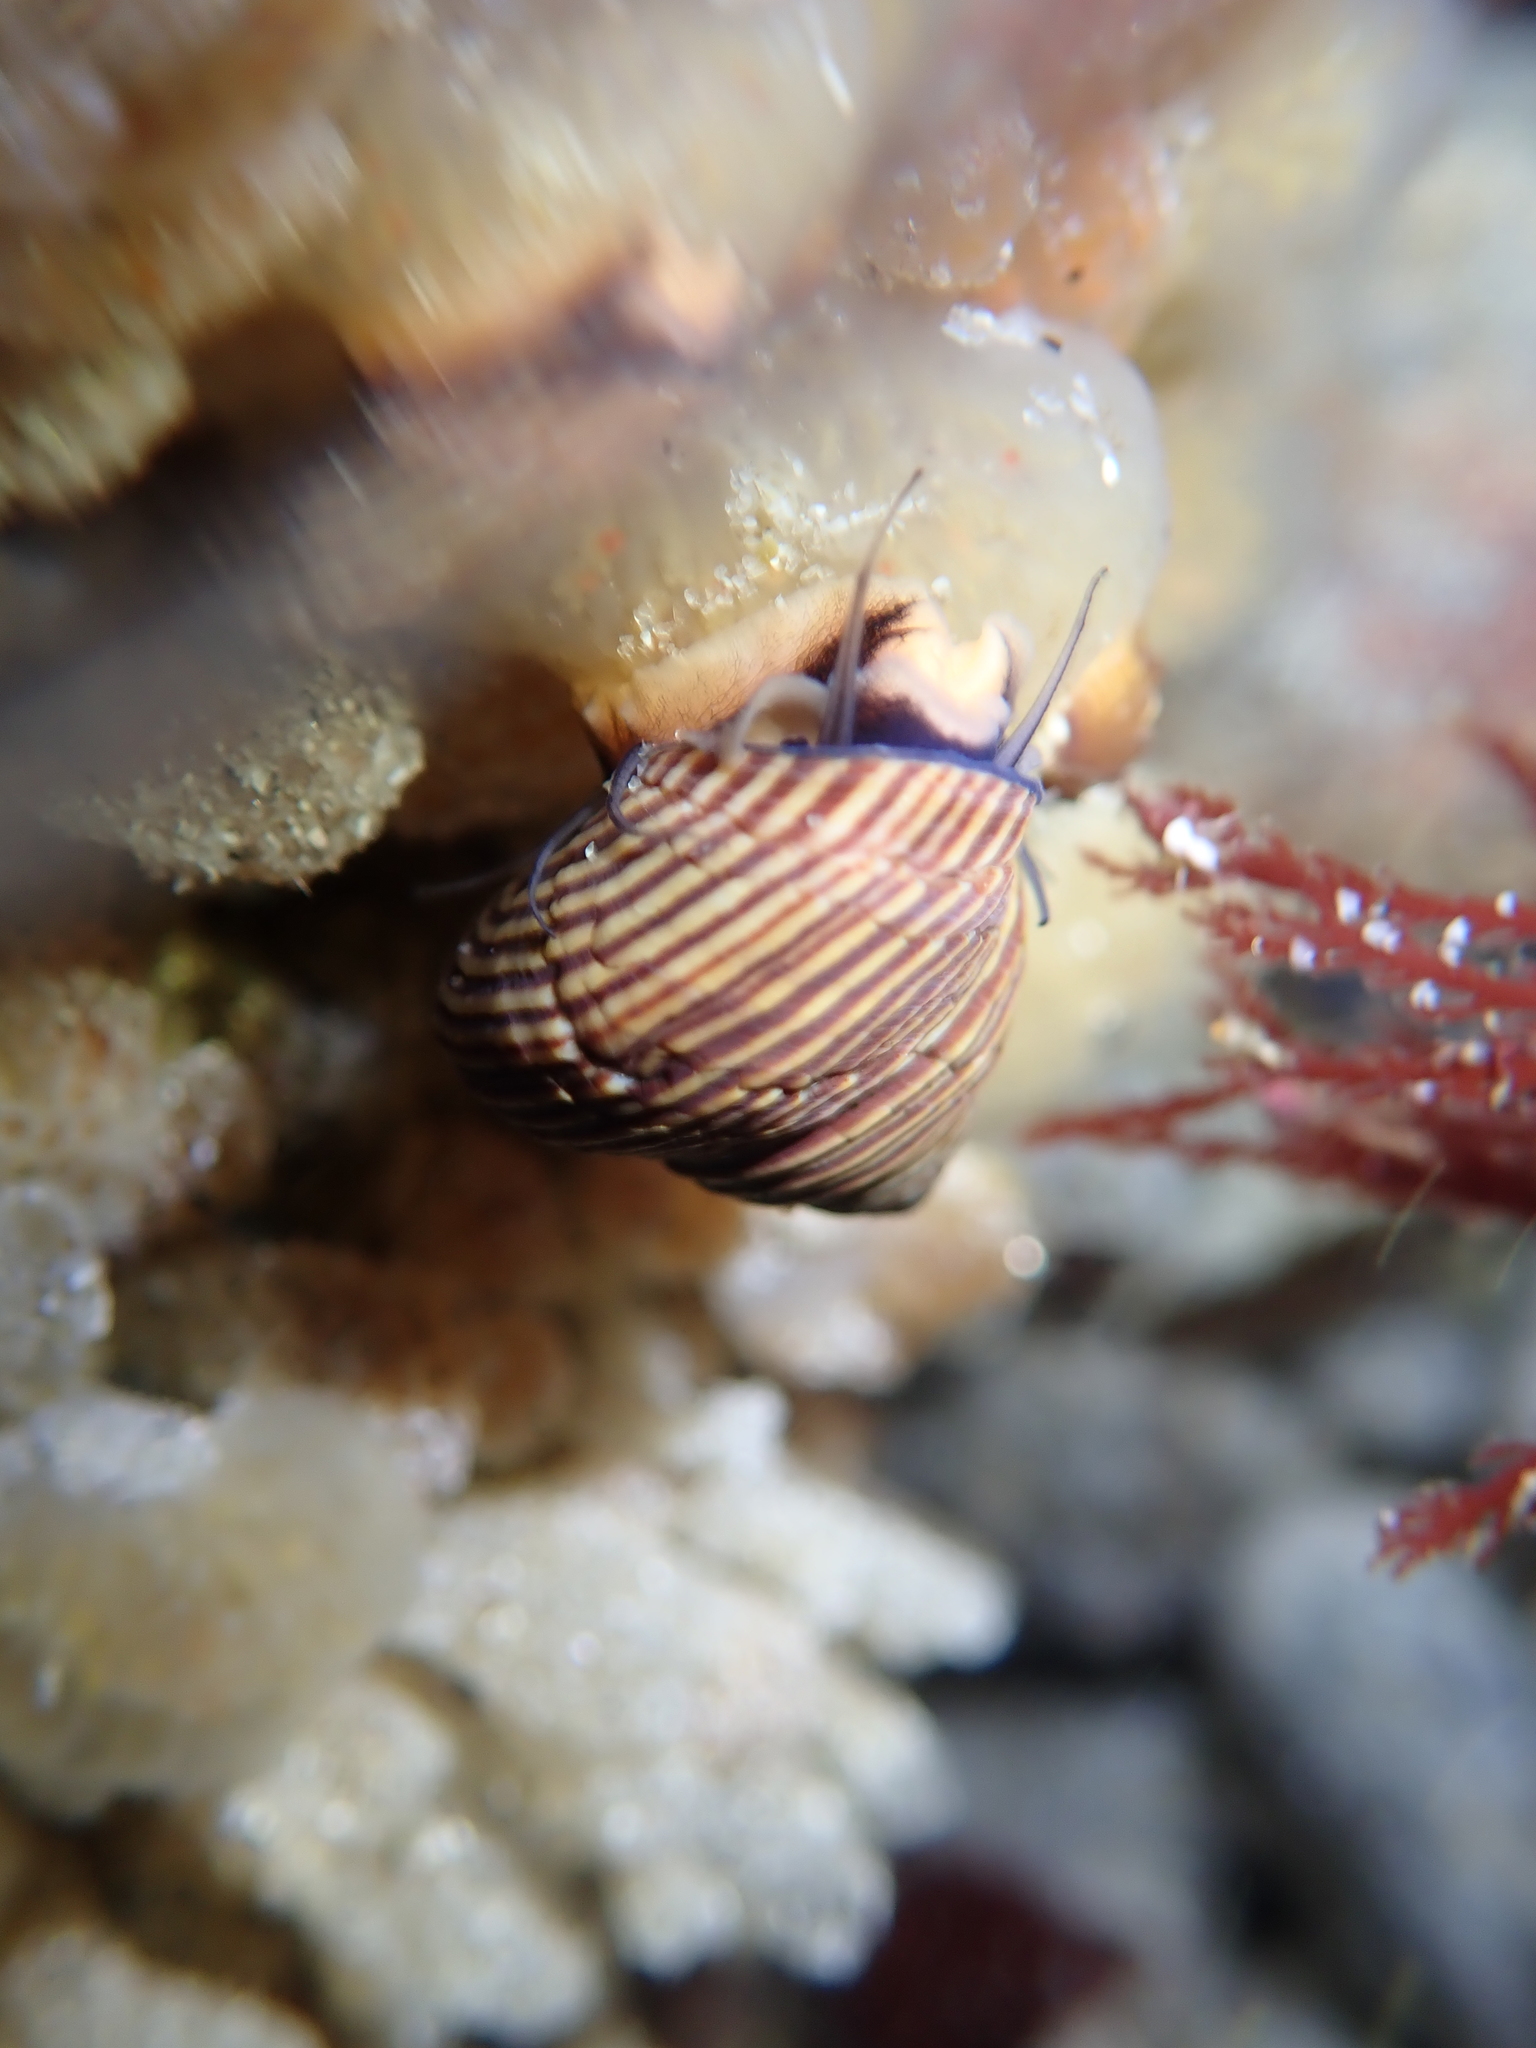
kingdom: Animalia
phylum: Mollusca
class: Gastropoda
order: Trochida
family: Calliostomatidae
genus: Calliostoma
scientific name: Calliostoma ligatum
